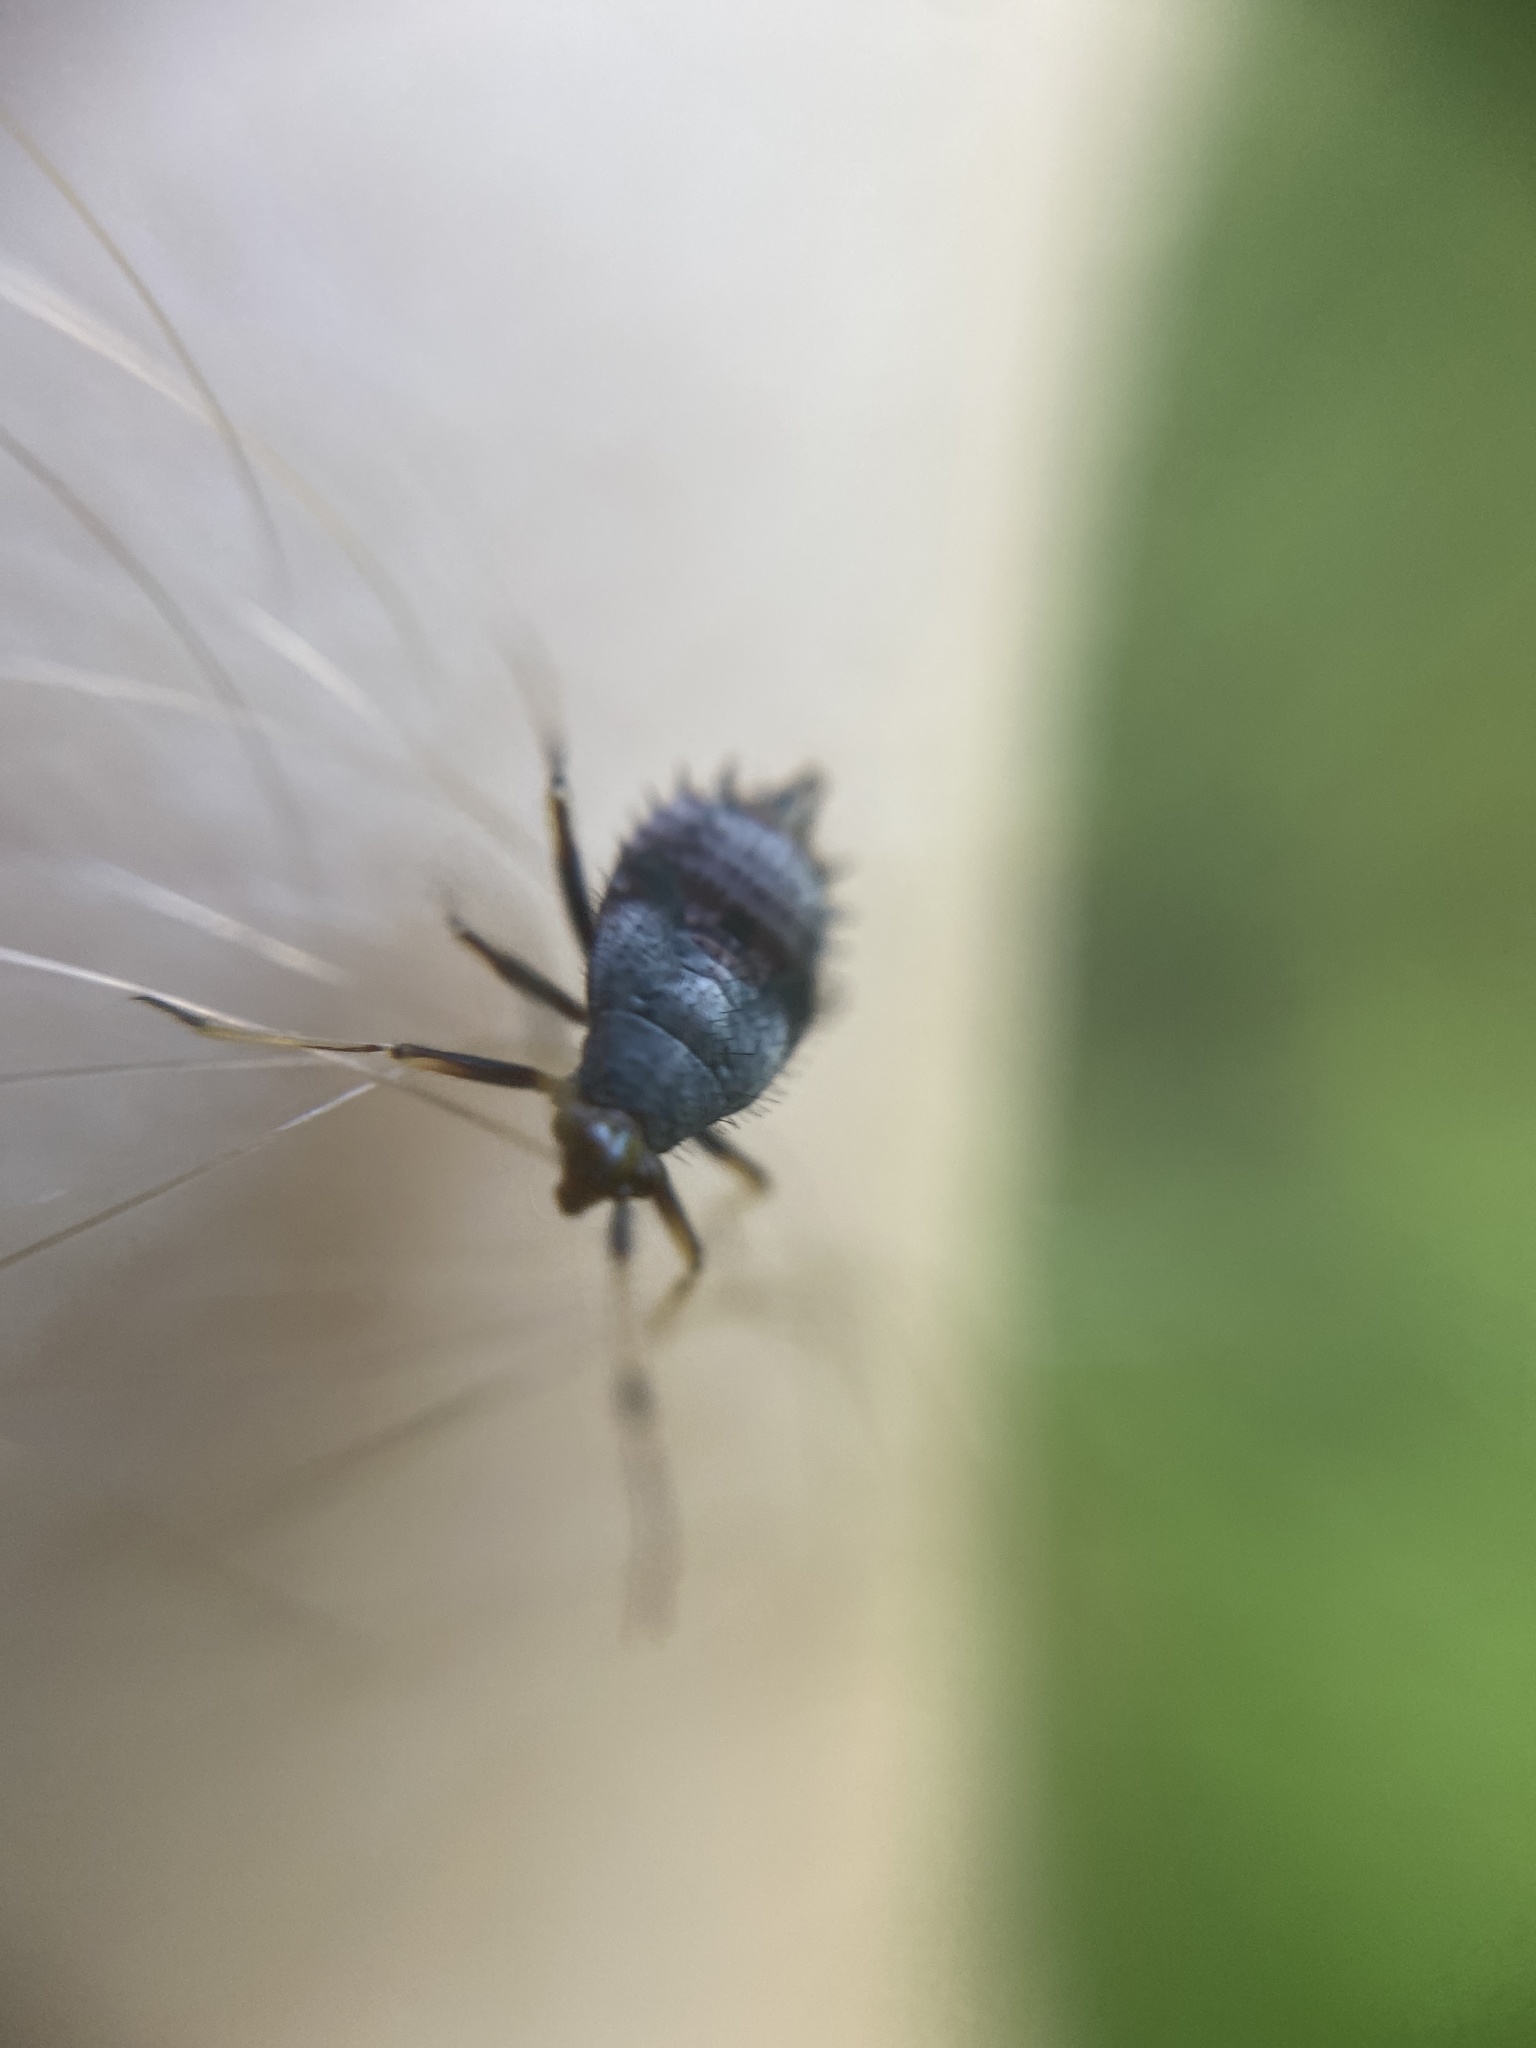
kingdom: Animalia
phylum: Arthropoda
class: Insecta
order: Hemiptera
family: Miridae
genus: Deraeocoris
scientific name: Deraeocoris ruber
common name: Plant bug
